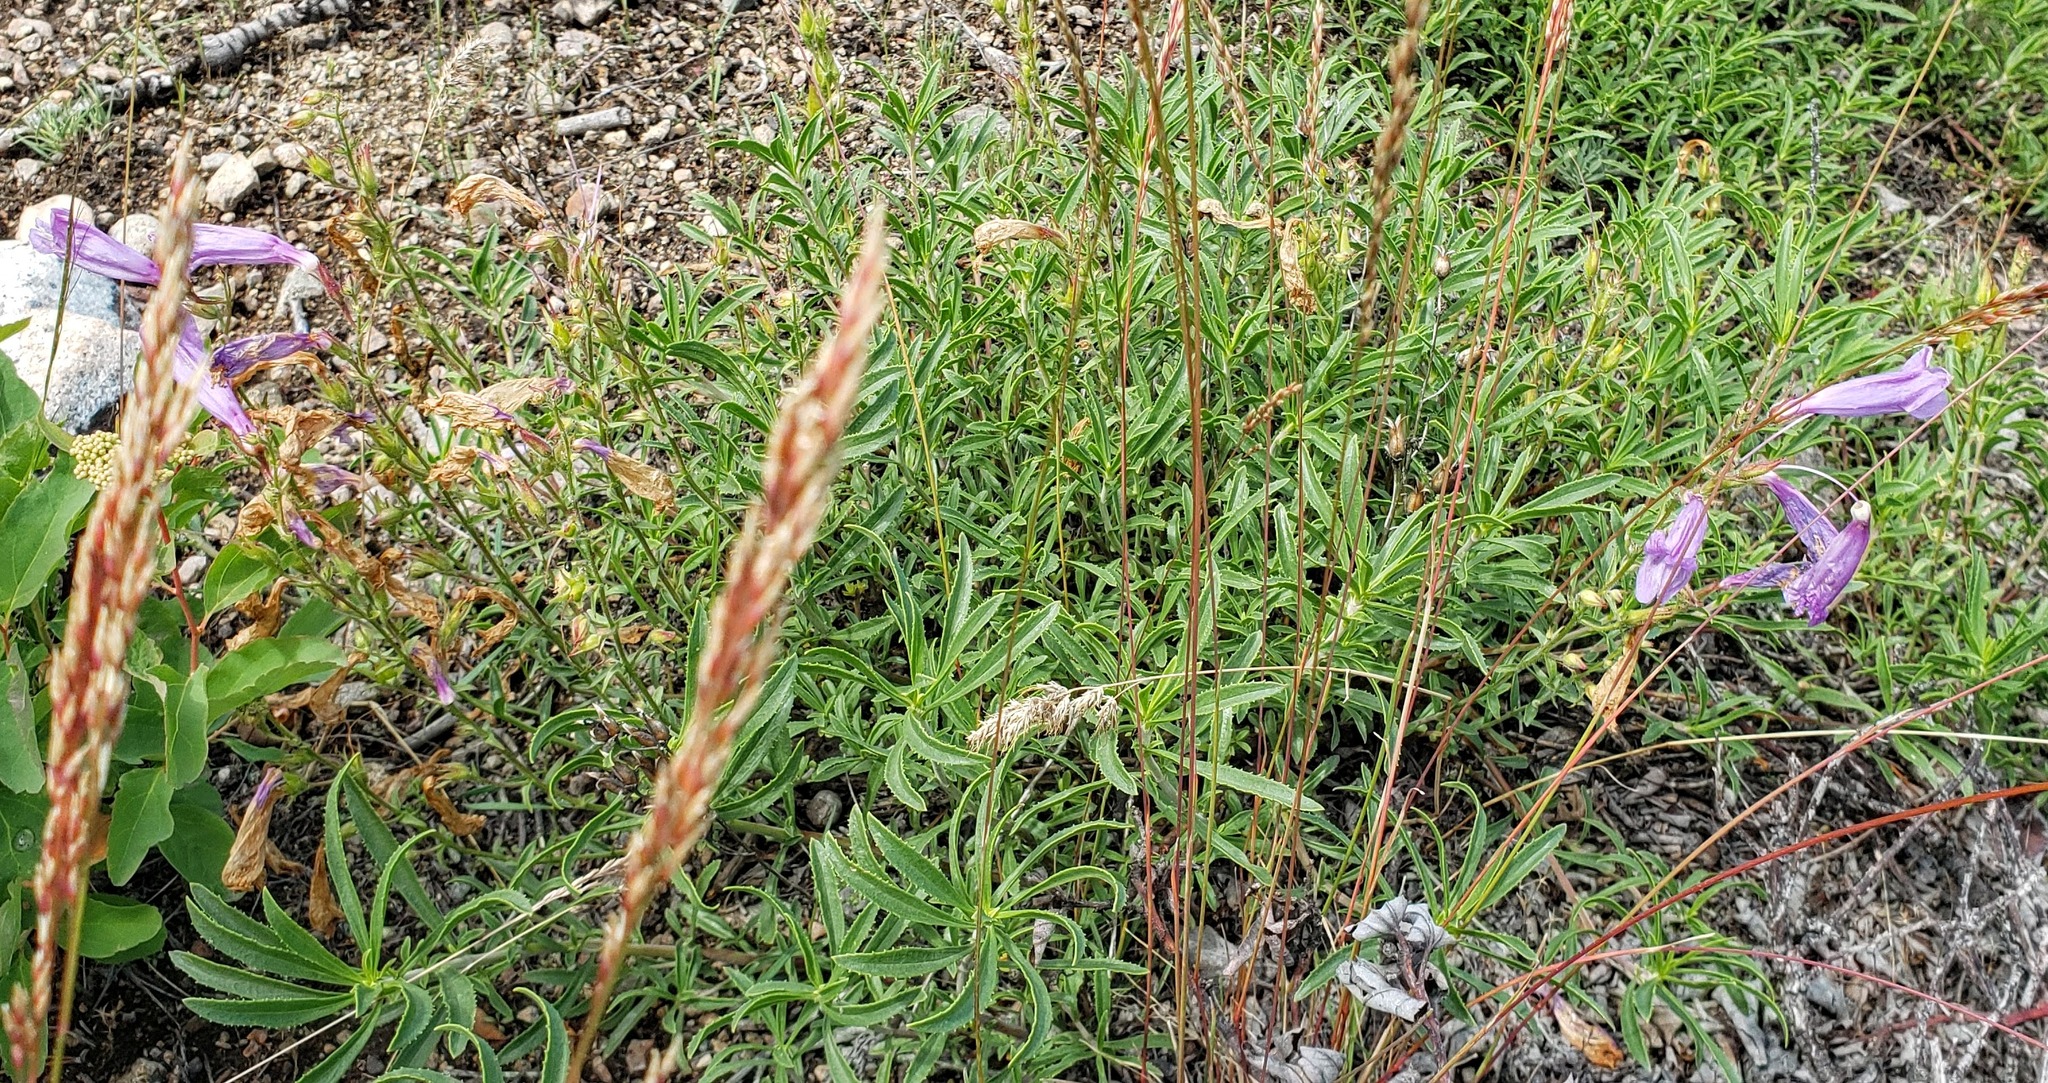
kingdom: Plantae
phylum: Tracheophyta
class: Magnoliopsida
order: Lamiales
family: Plantaginaceae
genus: Penstemon
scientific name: Penstemon fruticosus
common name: Bush penstemon
